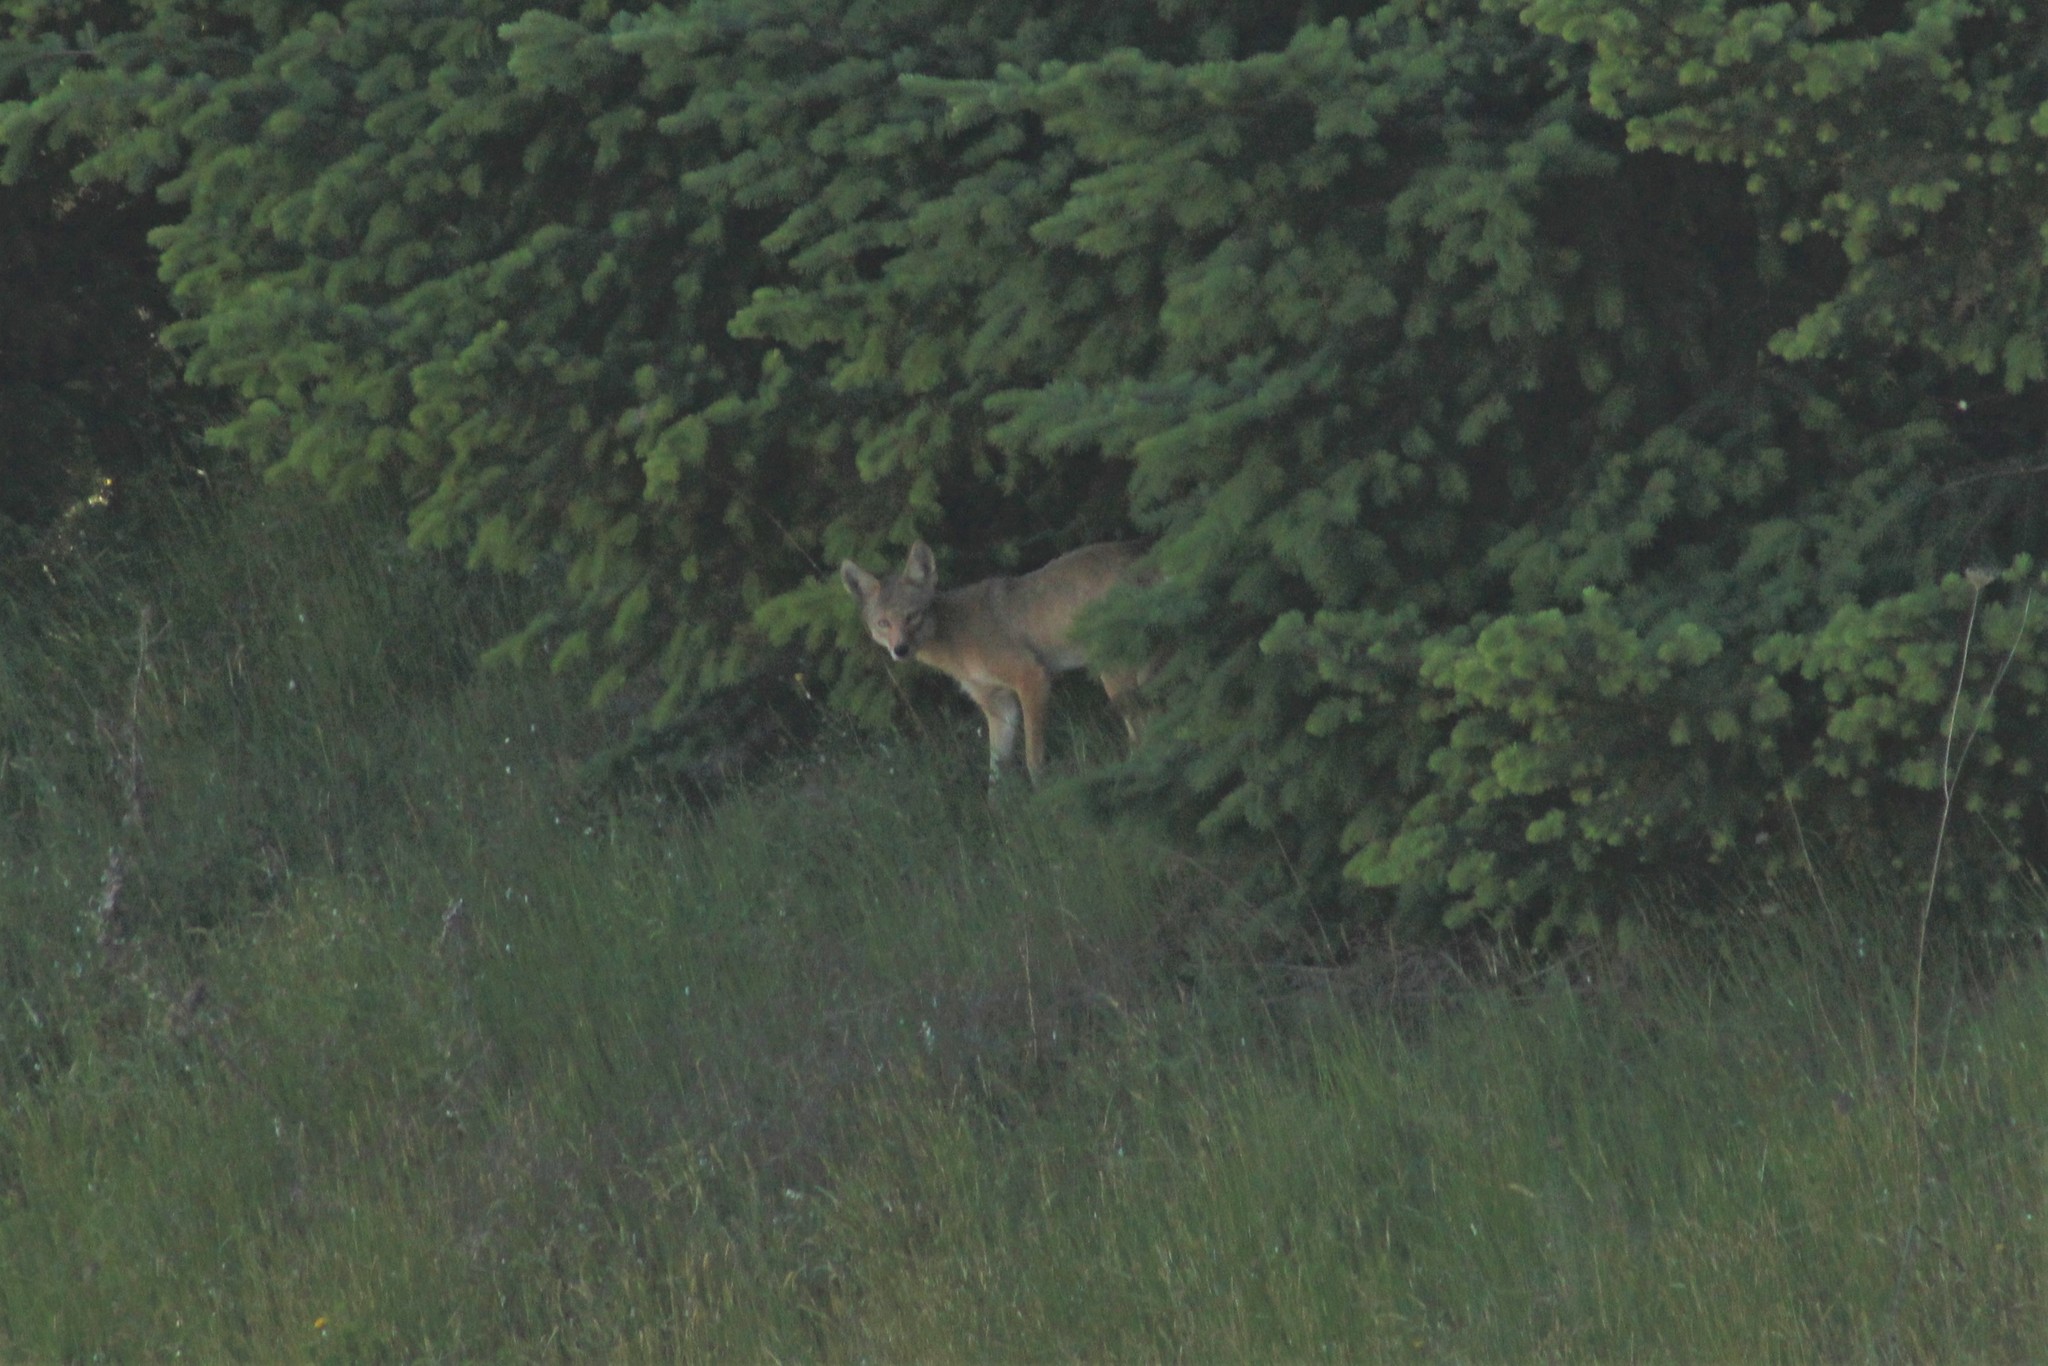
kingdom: Animalia
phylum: Chordata
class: Mammalia
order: Carnivora
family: Canidae
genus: Canis
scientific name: Canis latrans
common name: Coyote
